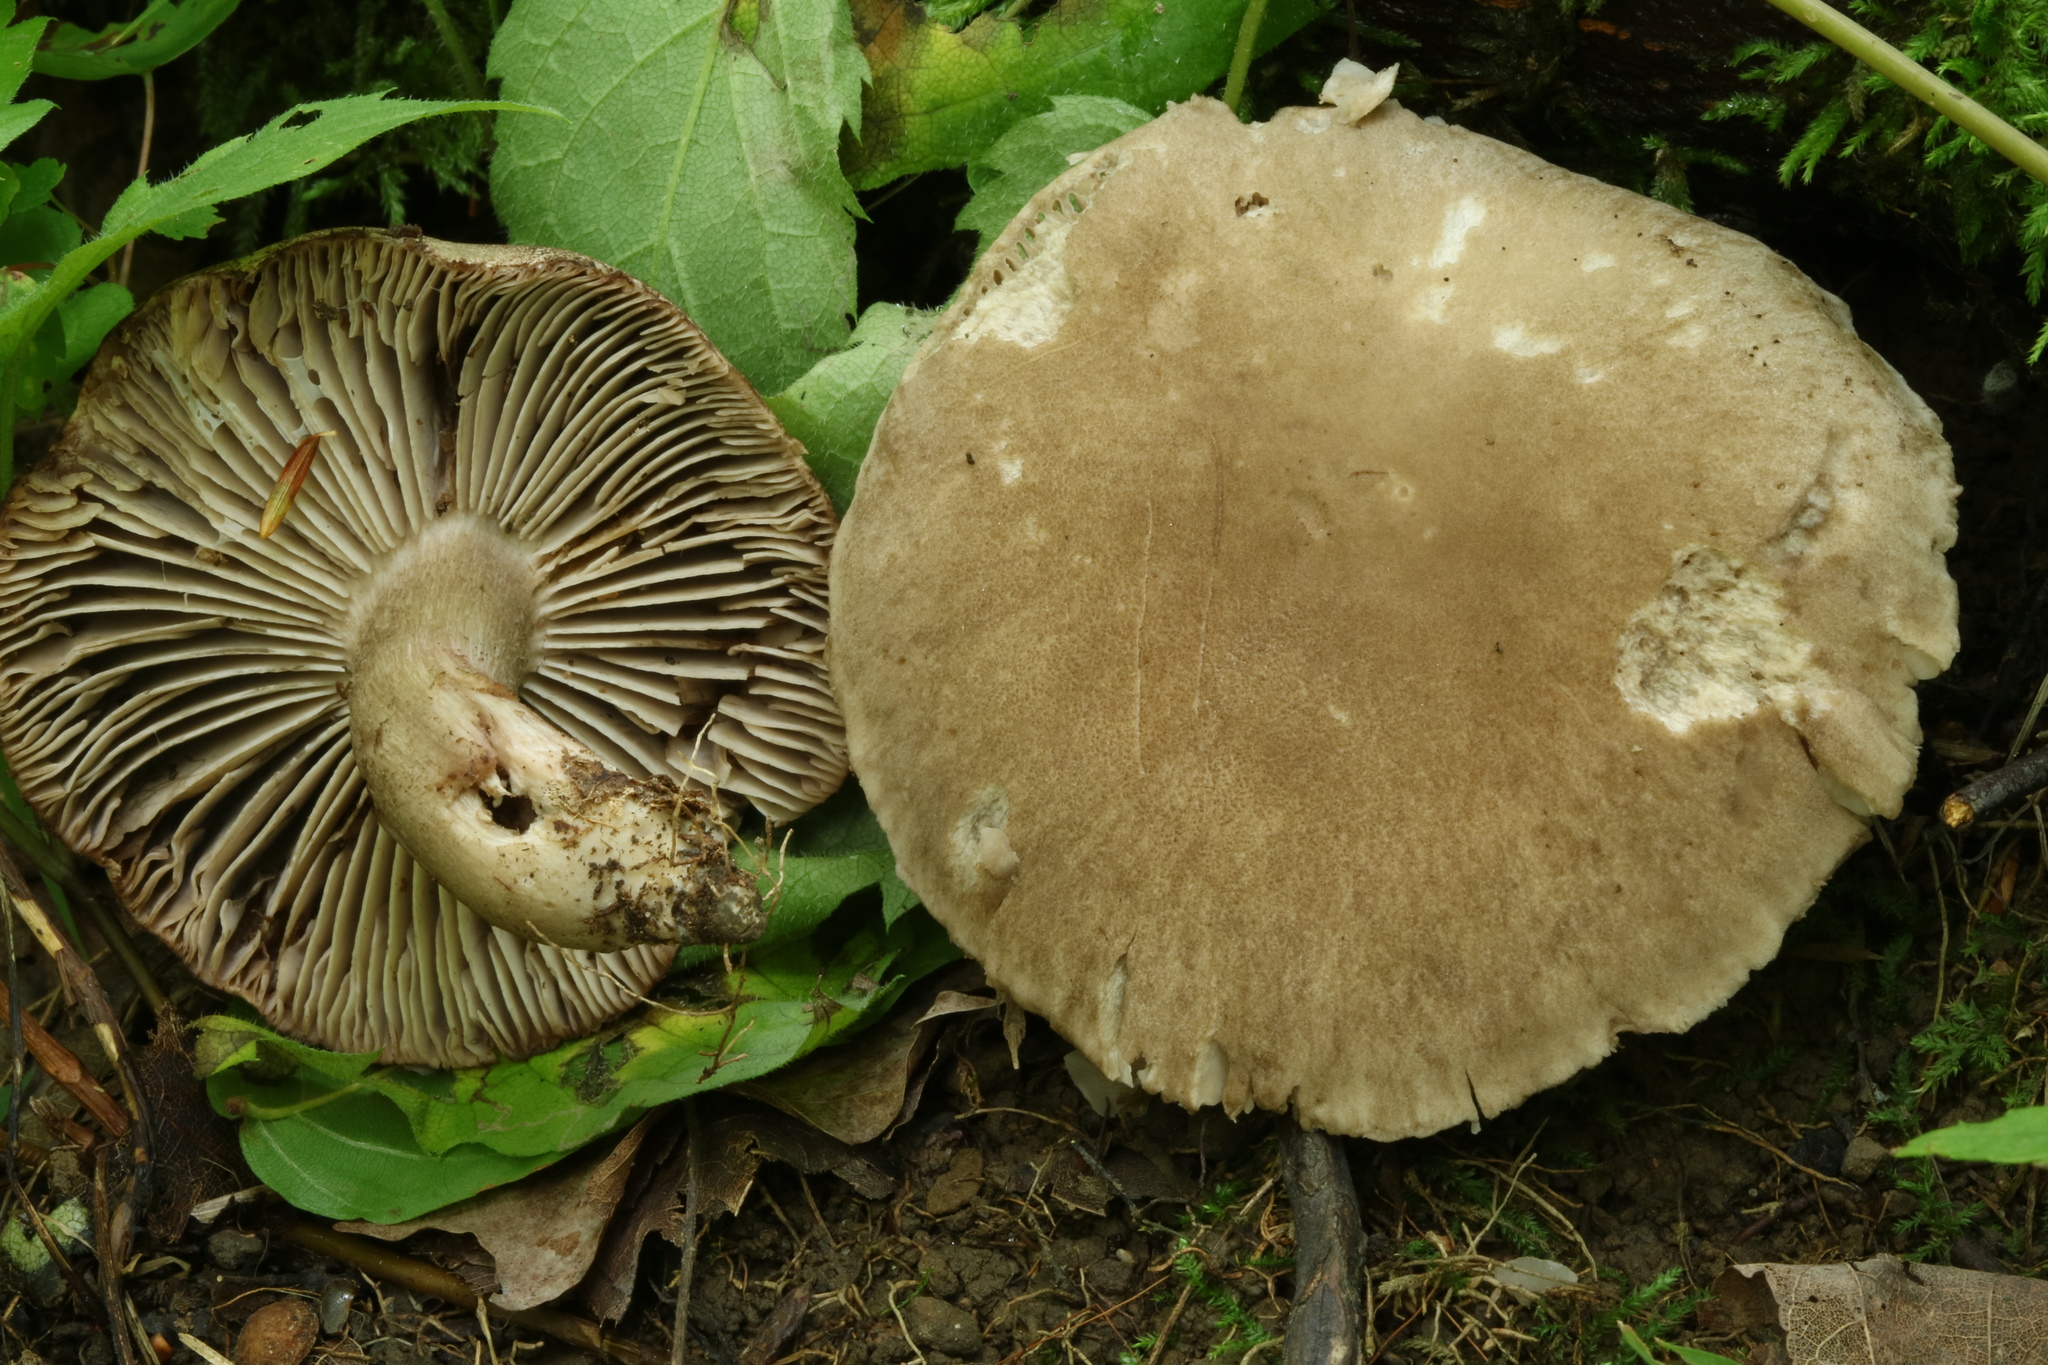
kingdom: Fungi
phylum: Basidiomycota
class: Agaricomycetes
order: Agaricales
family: Tricholomataceae
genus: Pseudotricholoma
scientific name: Pseudotricholoma umbrosum
